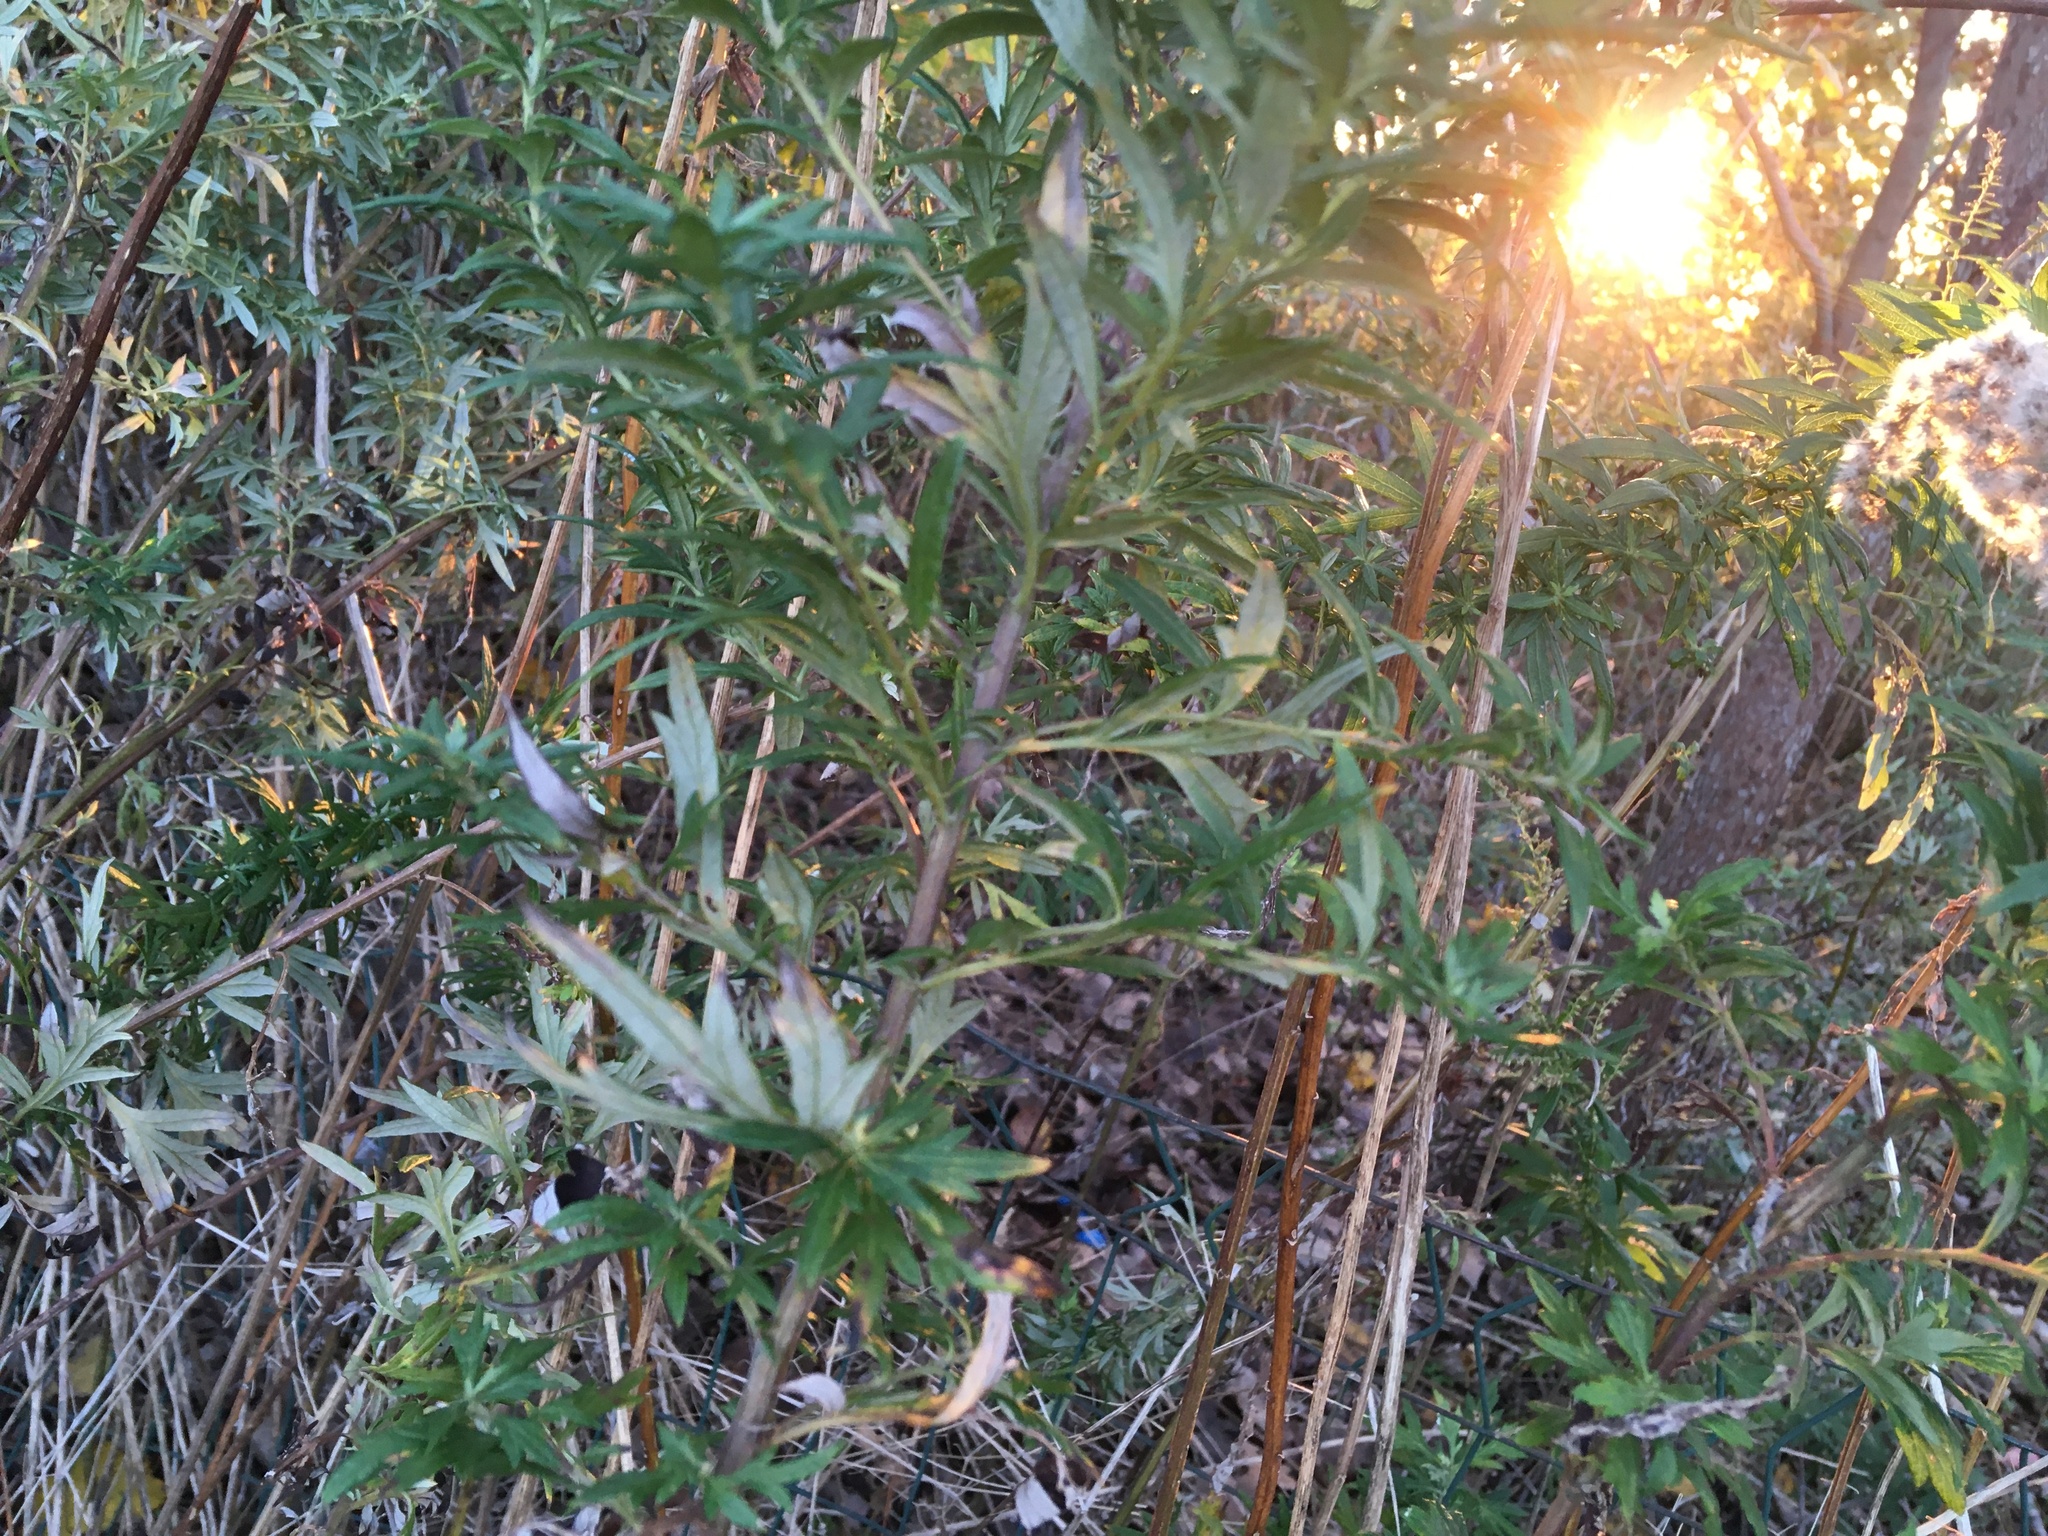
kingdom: Plantae
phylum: Tracheophyta
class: Magnoliopsida
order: Asterales
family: Asteraceae
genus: Artemisia
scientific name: Artemisia vulgaris
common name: Mugwort
